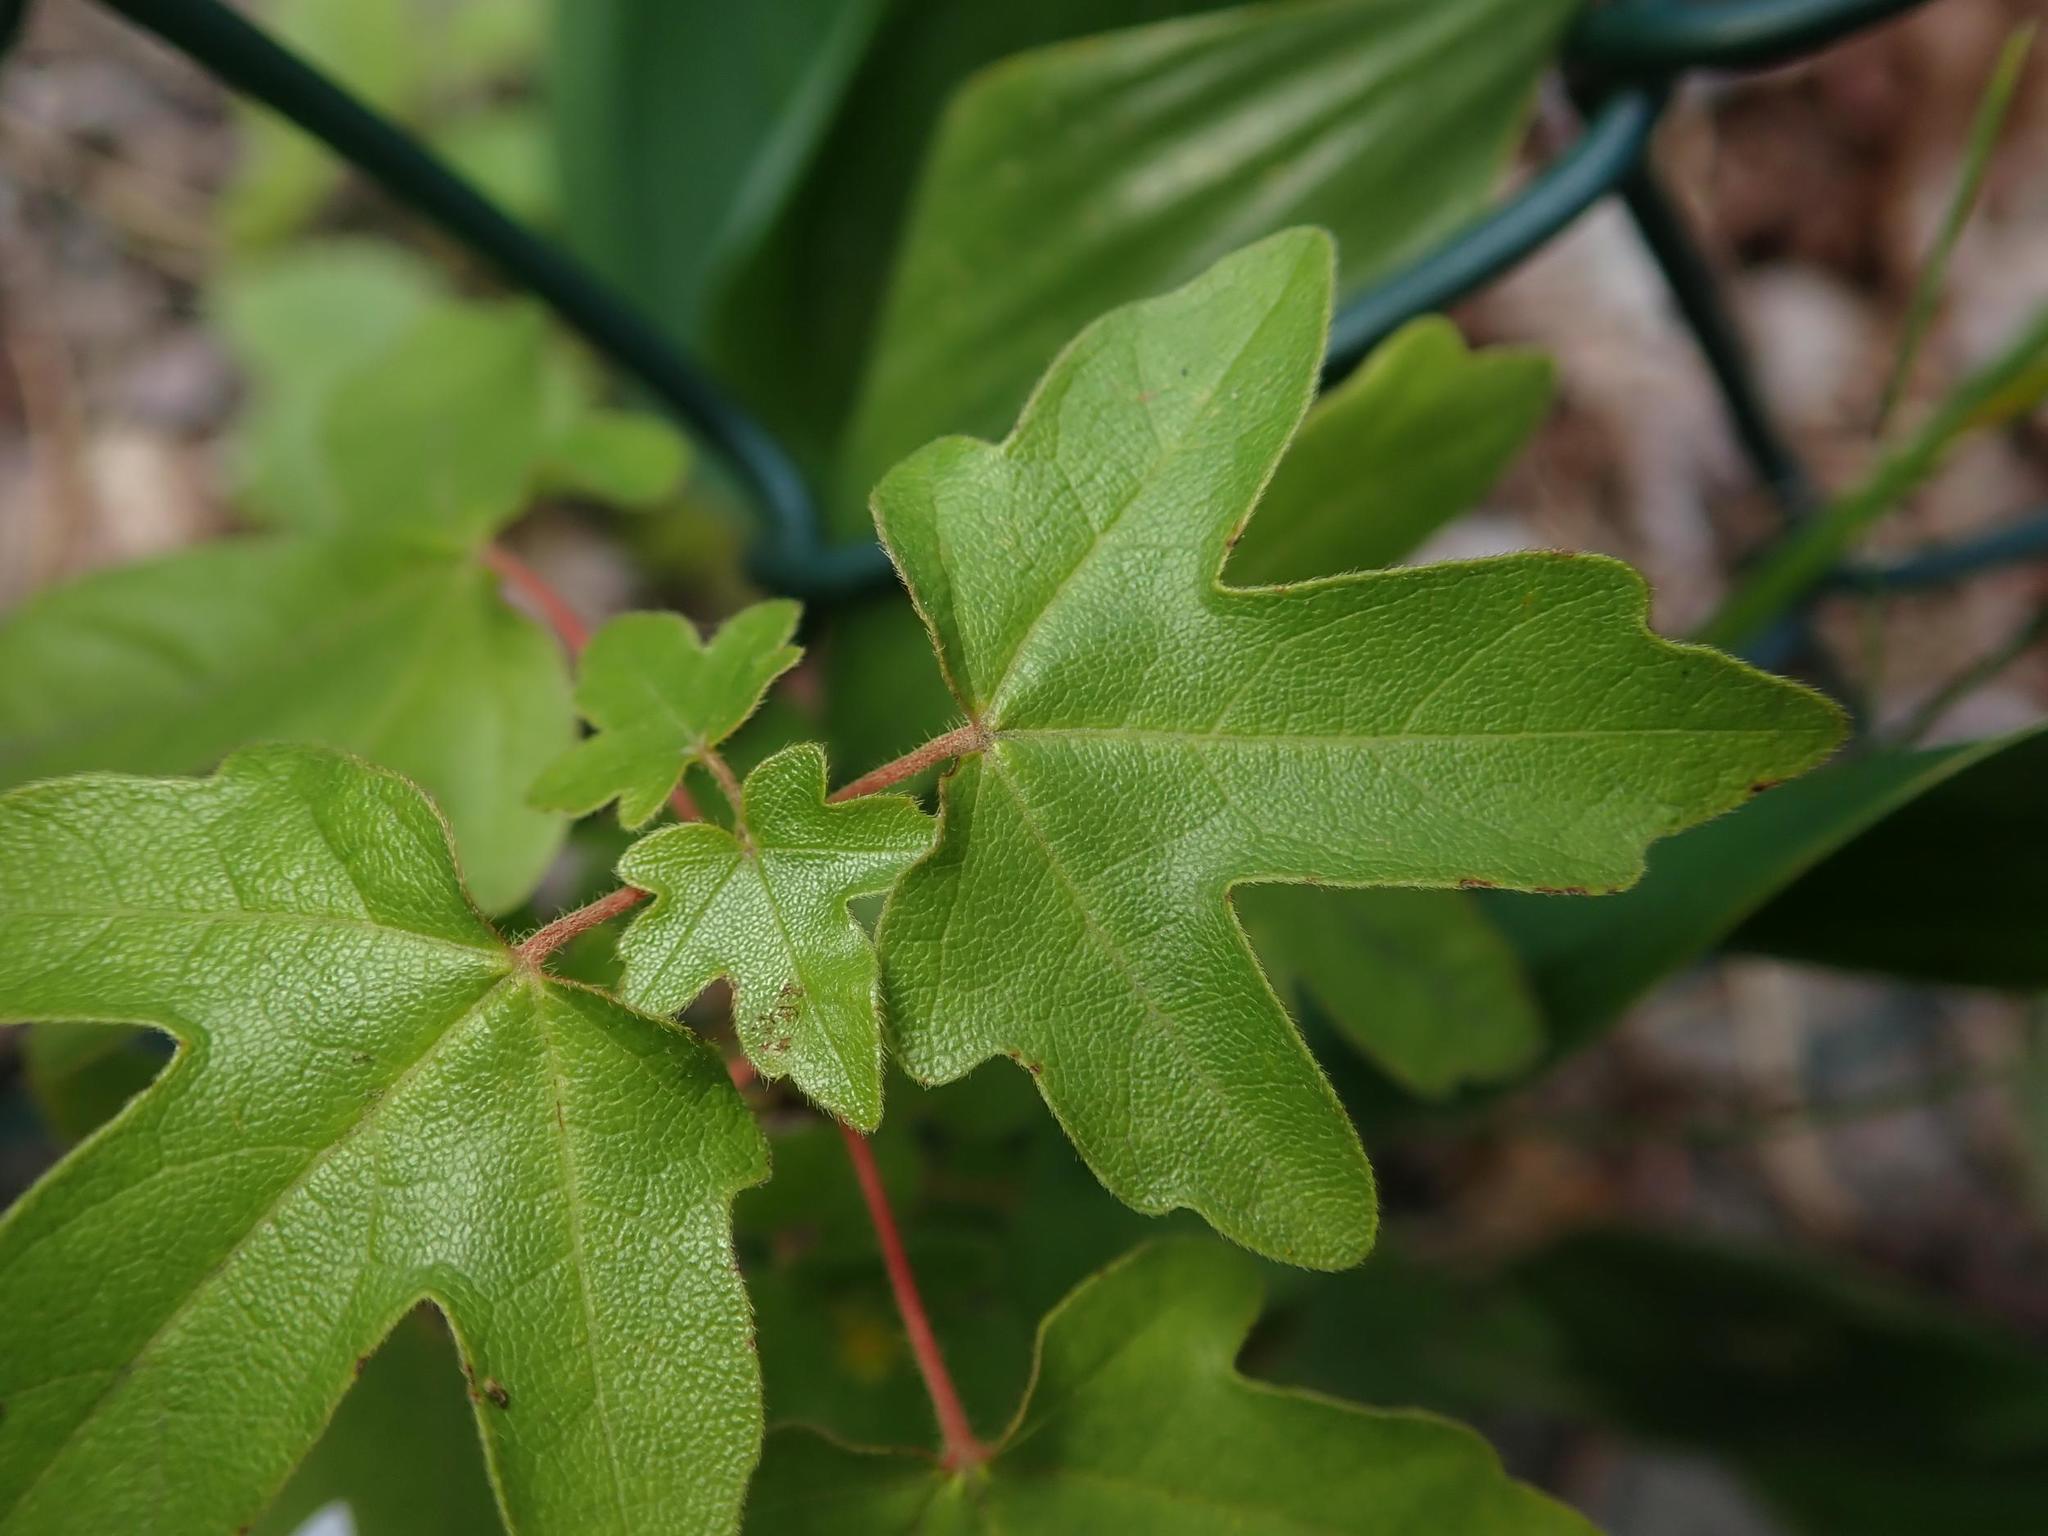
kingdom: Plantae
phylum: Tracheophyta
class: Magnoliopsida
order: Sapindales
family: Sapindaceae
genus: Acer
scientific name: Acer campestre
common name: Field maple
